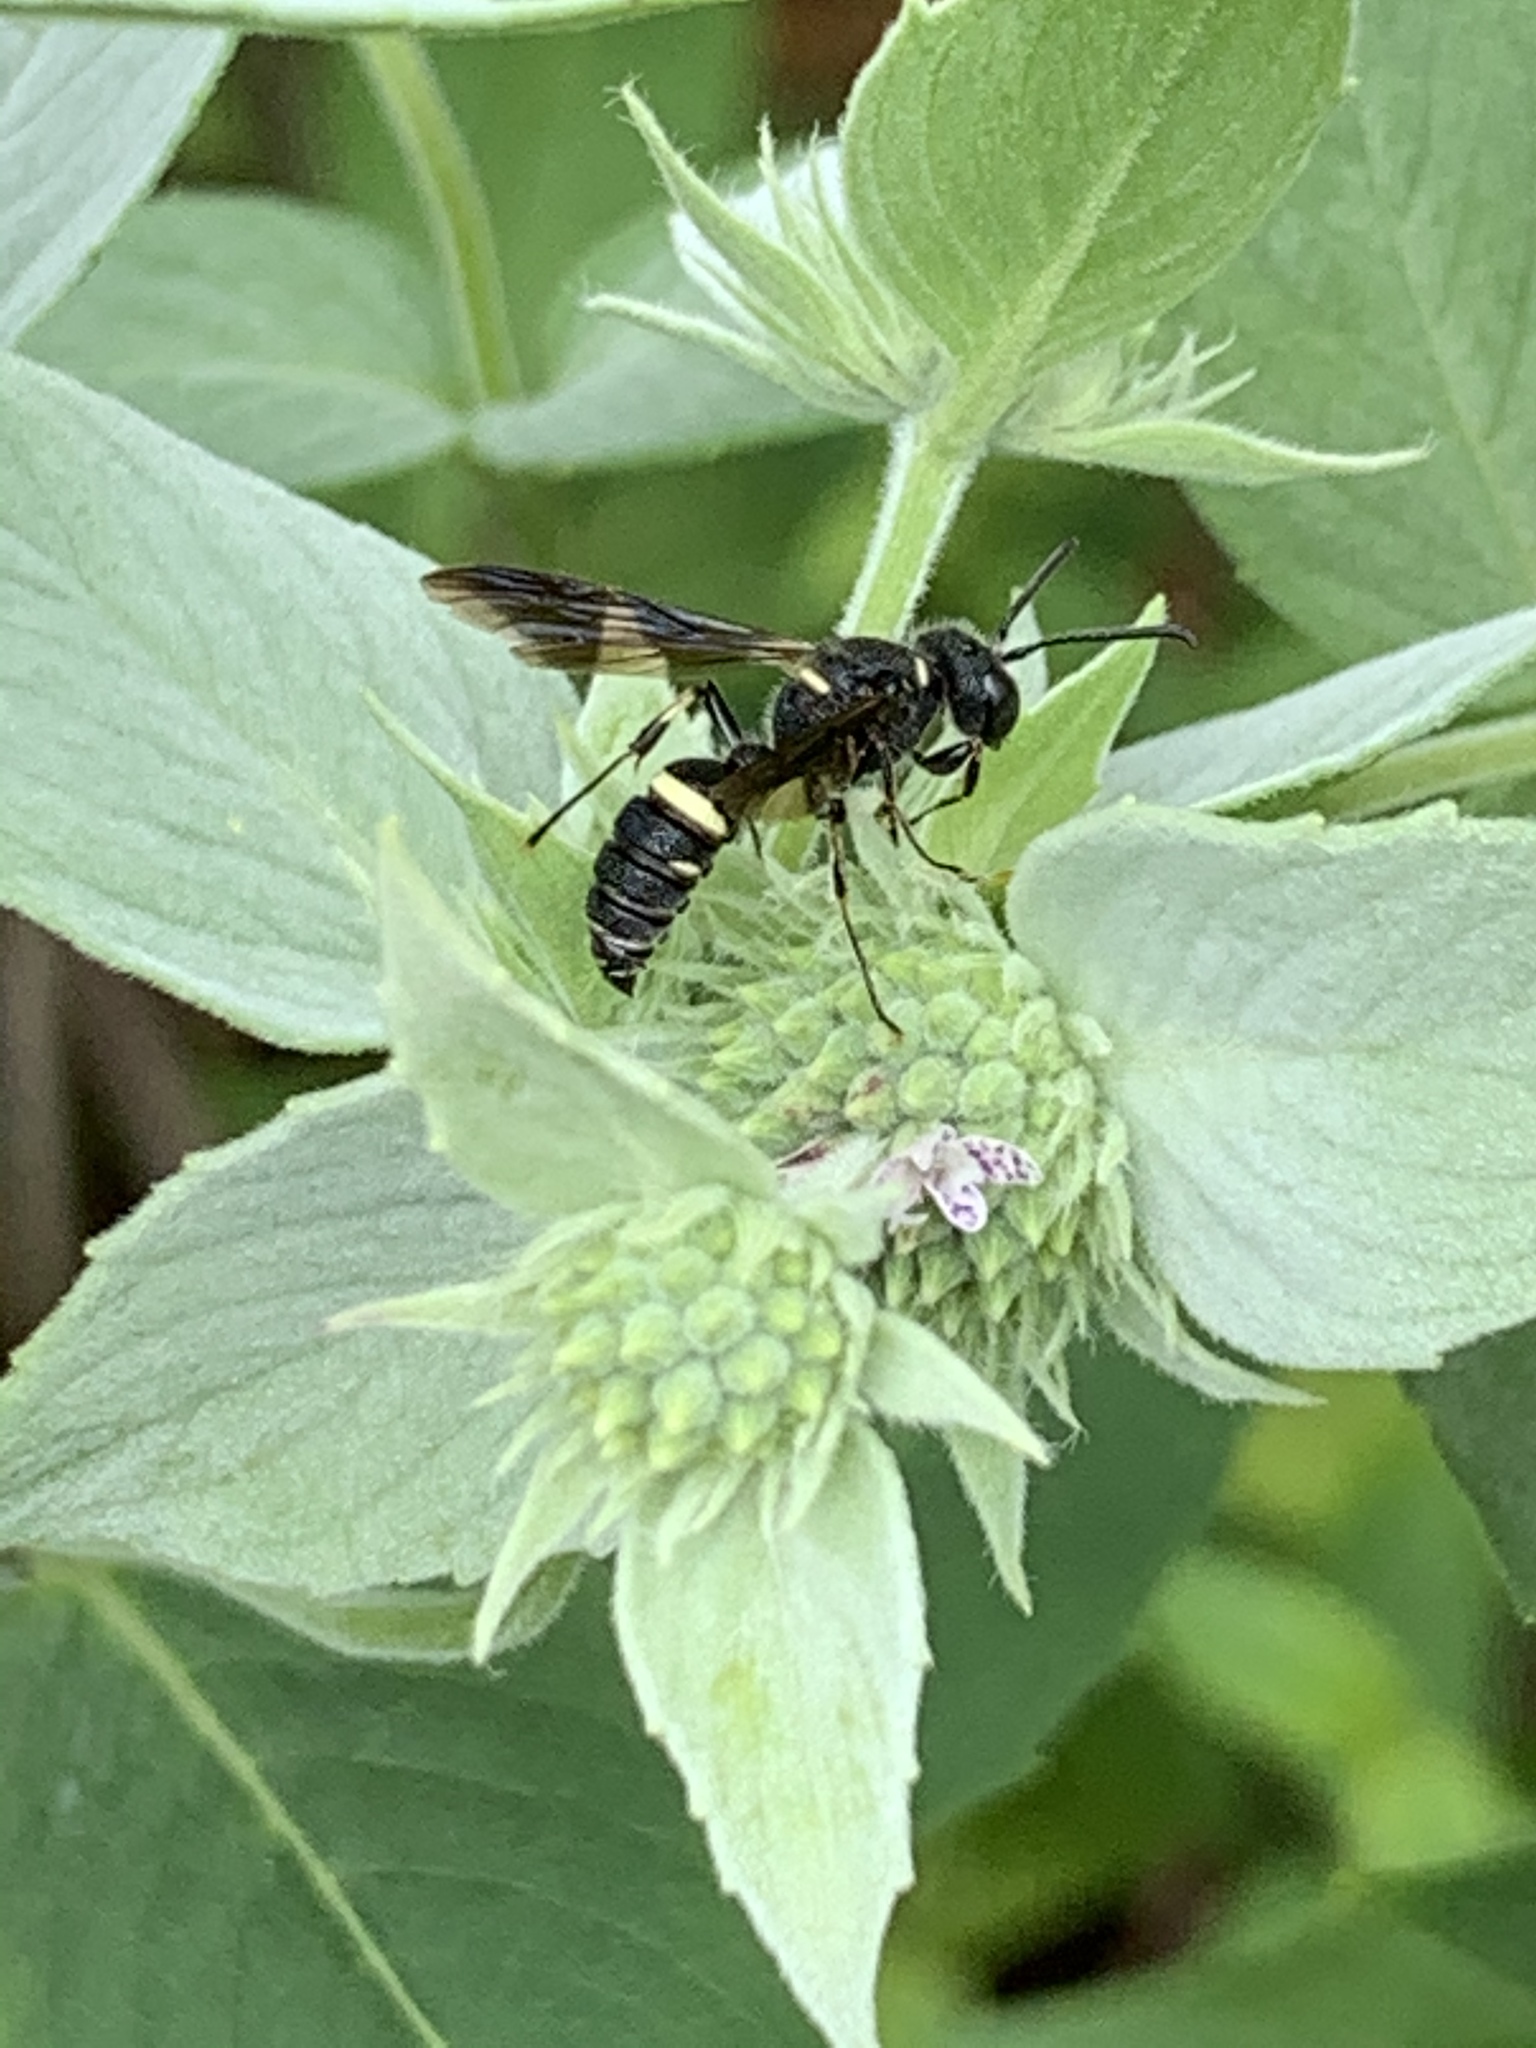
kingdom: Animalia
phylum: Arthropoda
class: Insecta
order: Hymenoptera
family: Crabronidae
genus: Cerceris
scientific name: Cerceris fumipennis
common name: Smokey-winged beetle bandit wasp
